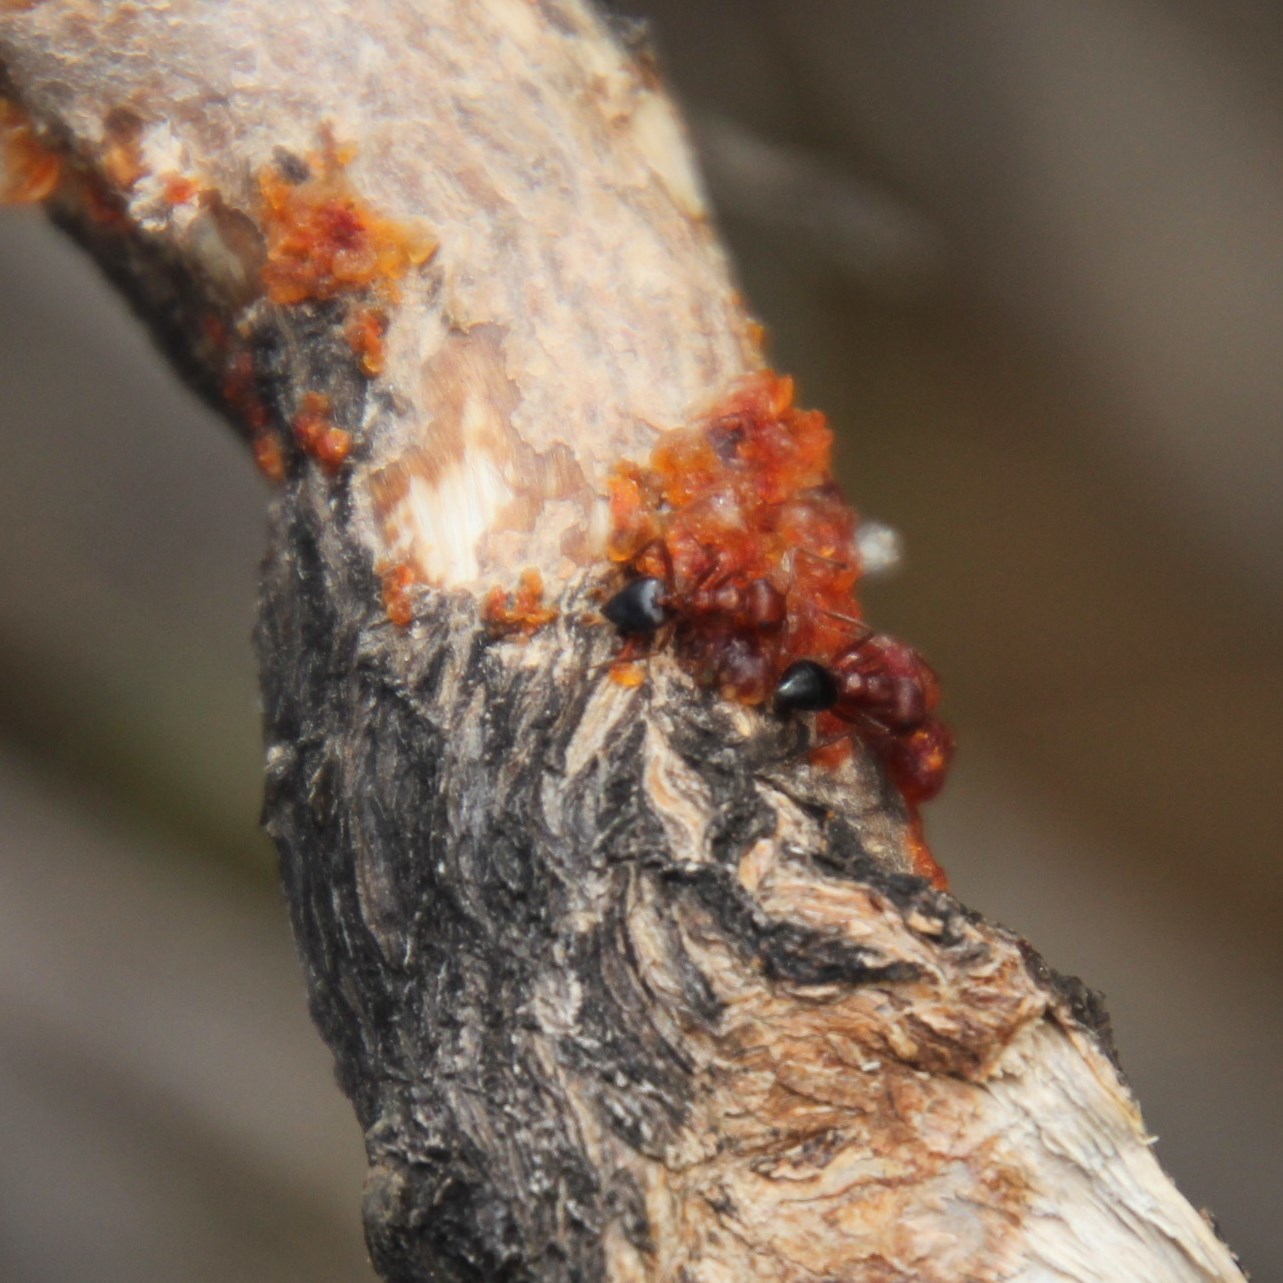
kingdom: Animalia
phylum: Arthropoda
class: Insecta
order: Hymenoptera
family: Formicidae
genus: Crematogaster
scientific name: Crematogaster melanogaster
